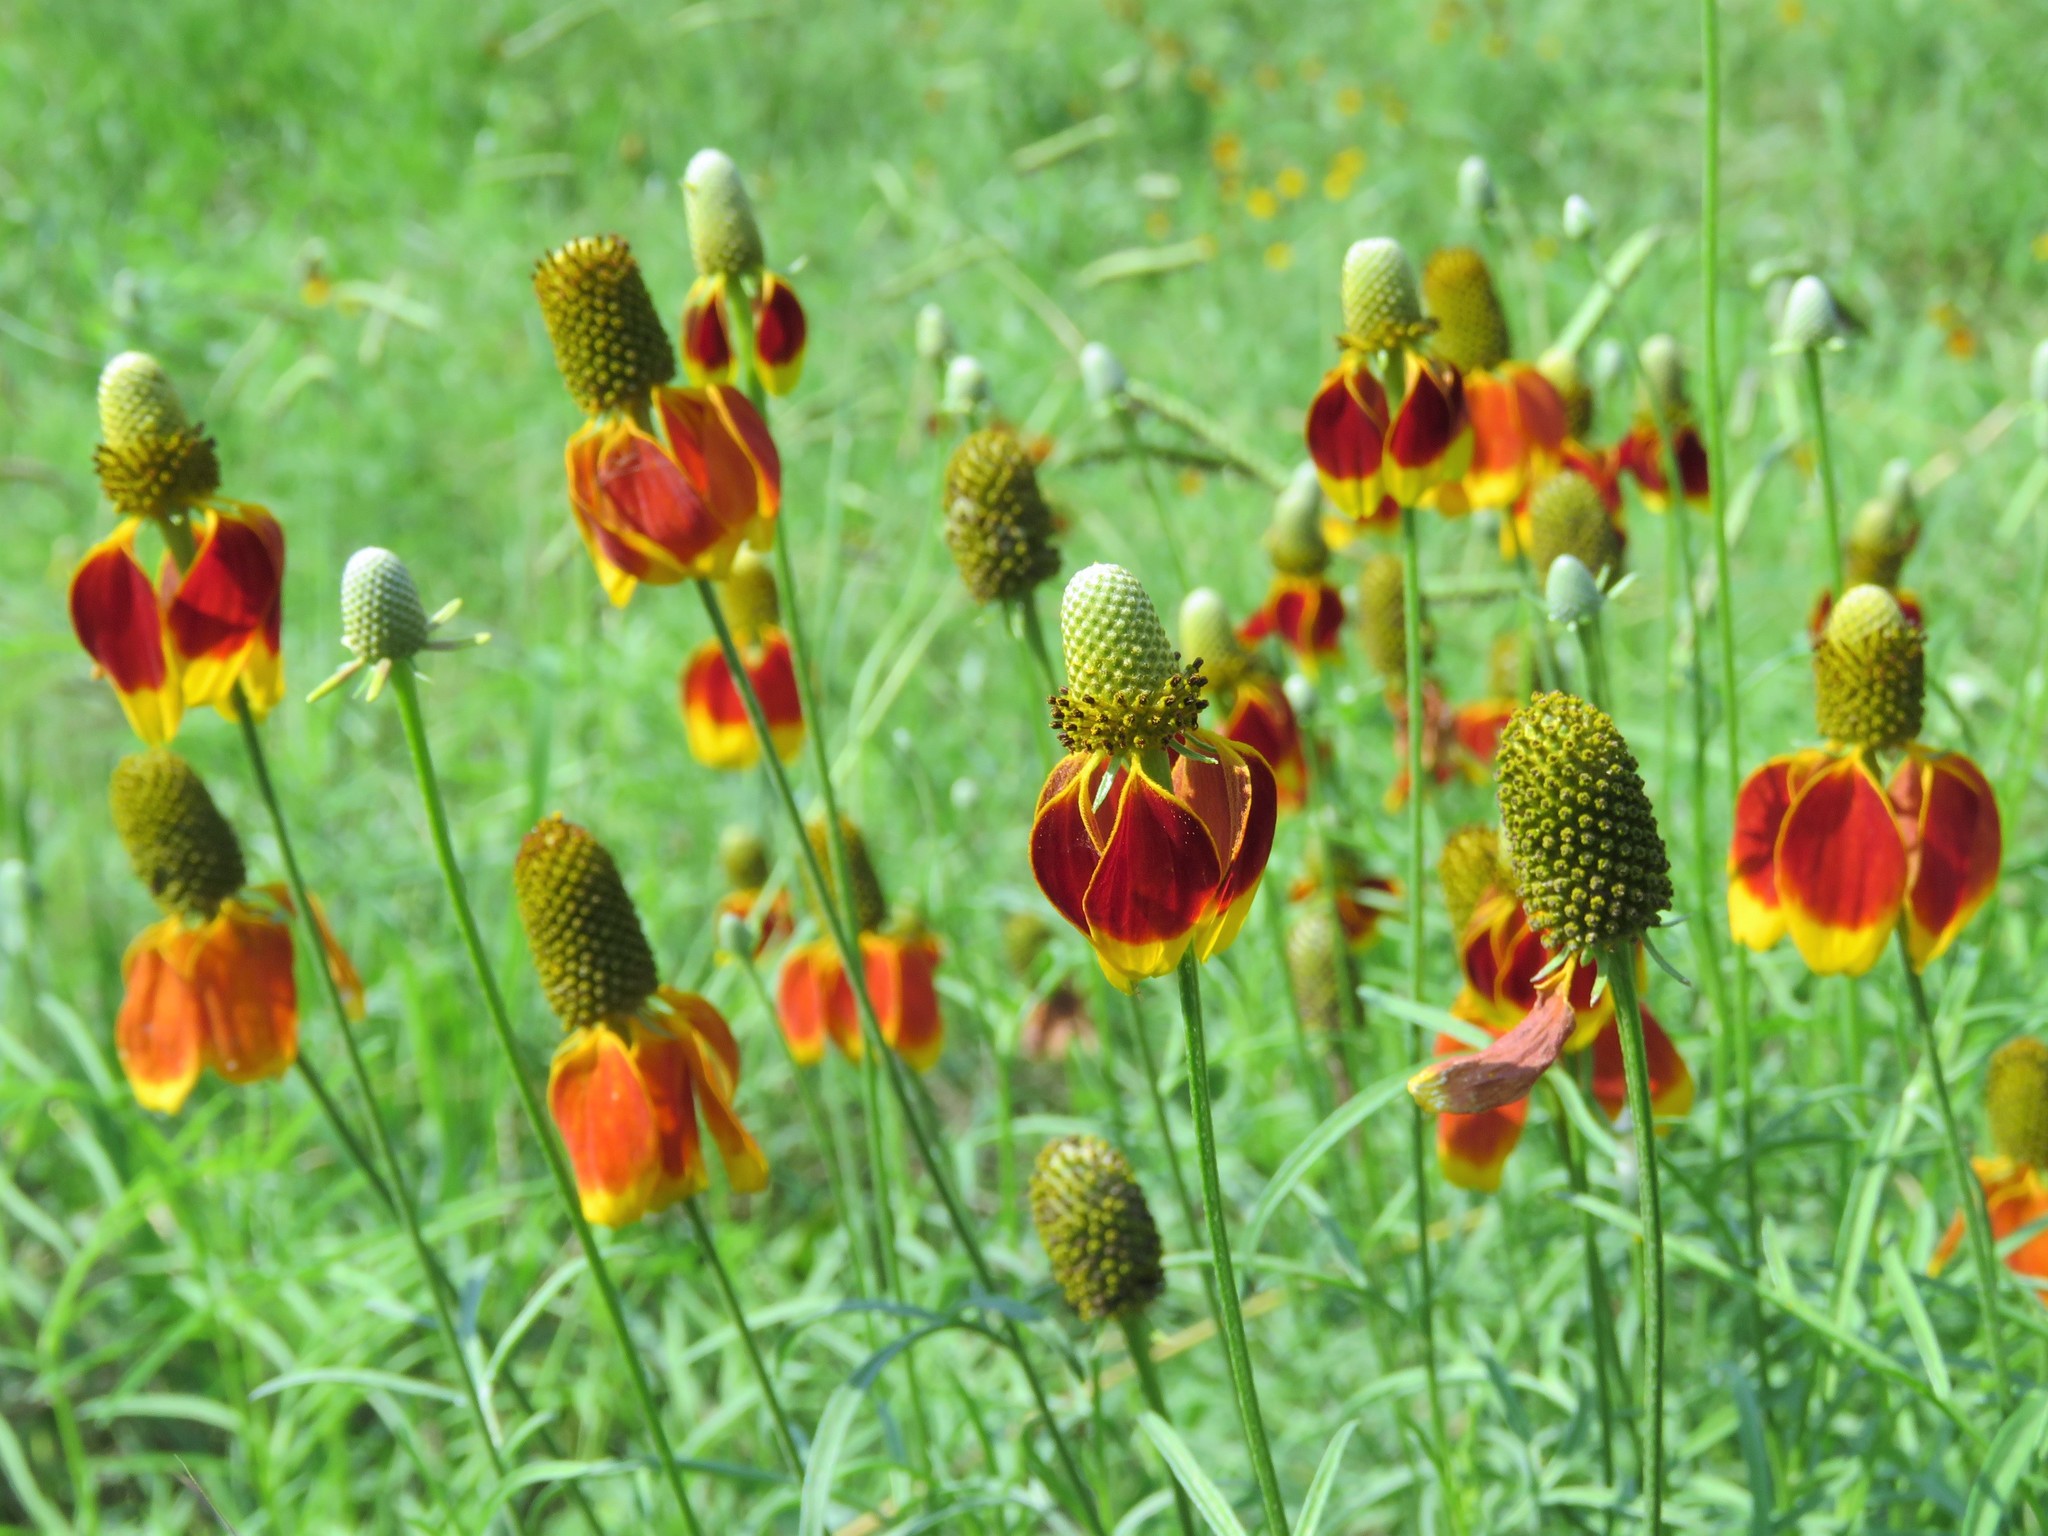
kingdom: Plantae
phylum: Tracheophyta
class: Magnoliopsida
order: Asterales
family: Asteraceae
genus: Ratibida
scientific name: Ratibida columnifera
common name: Prairie coneflower
